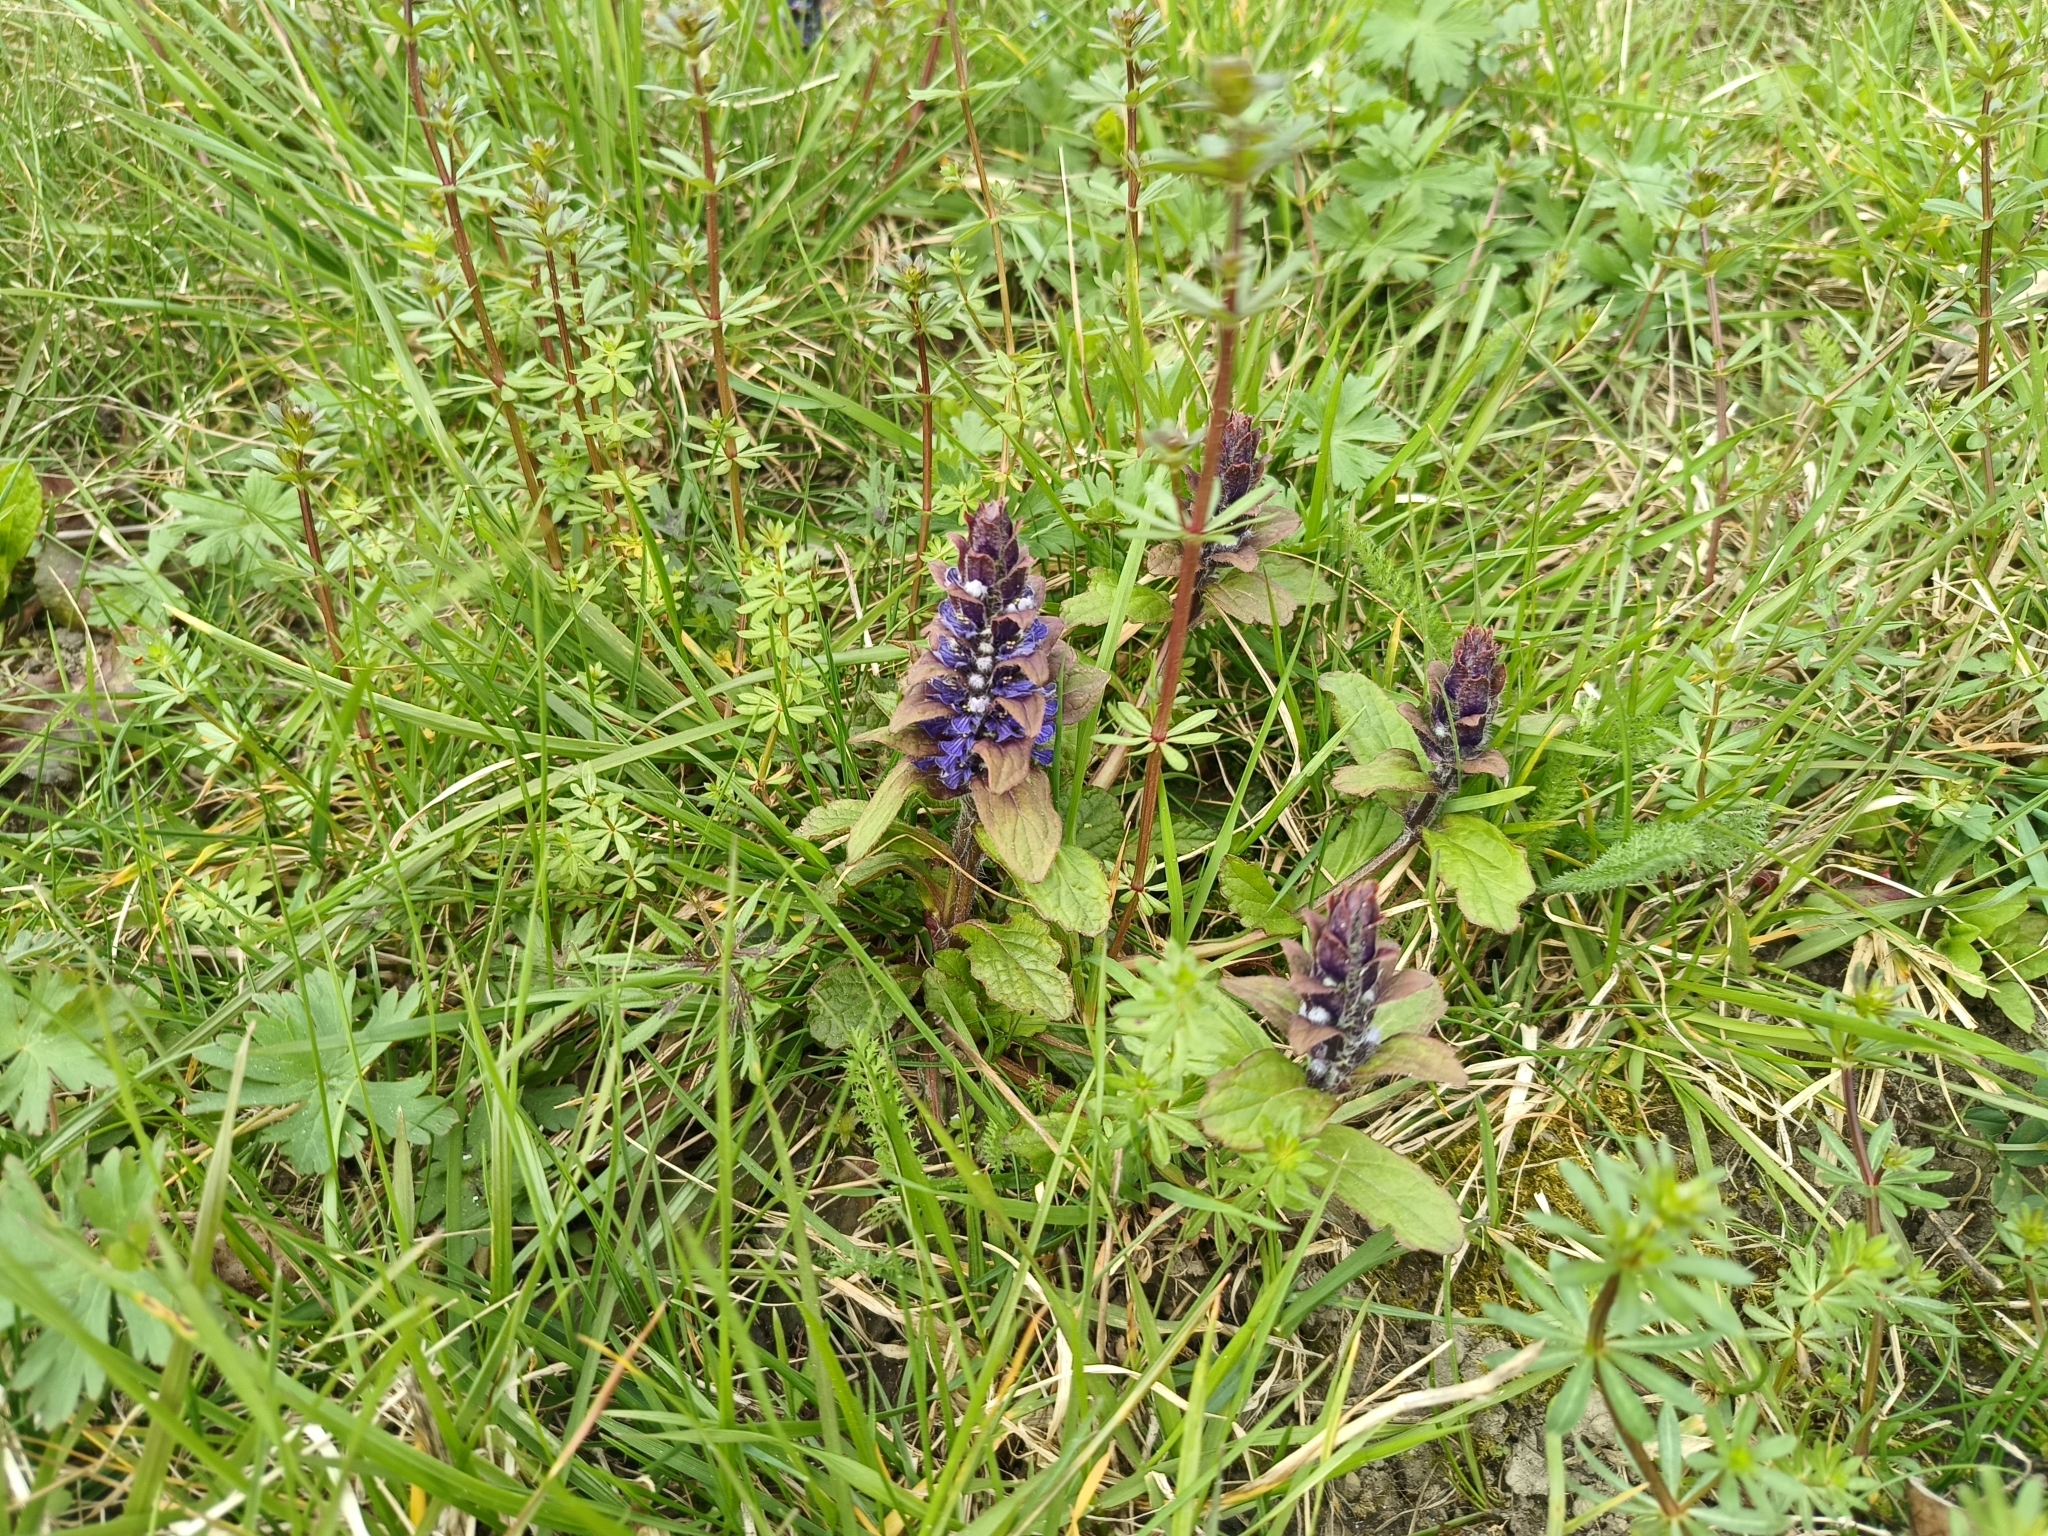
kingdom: Plantae
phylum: Tracheophyta
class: Magnoliopsida
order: Lamiales
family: Lamiaceae
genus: Ajuga
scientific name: Ajuga reptans
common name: Bugle
